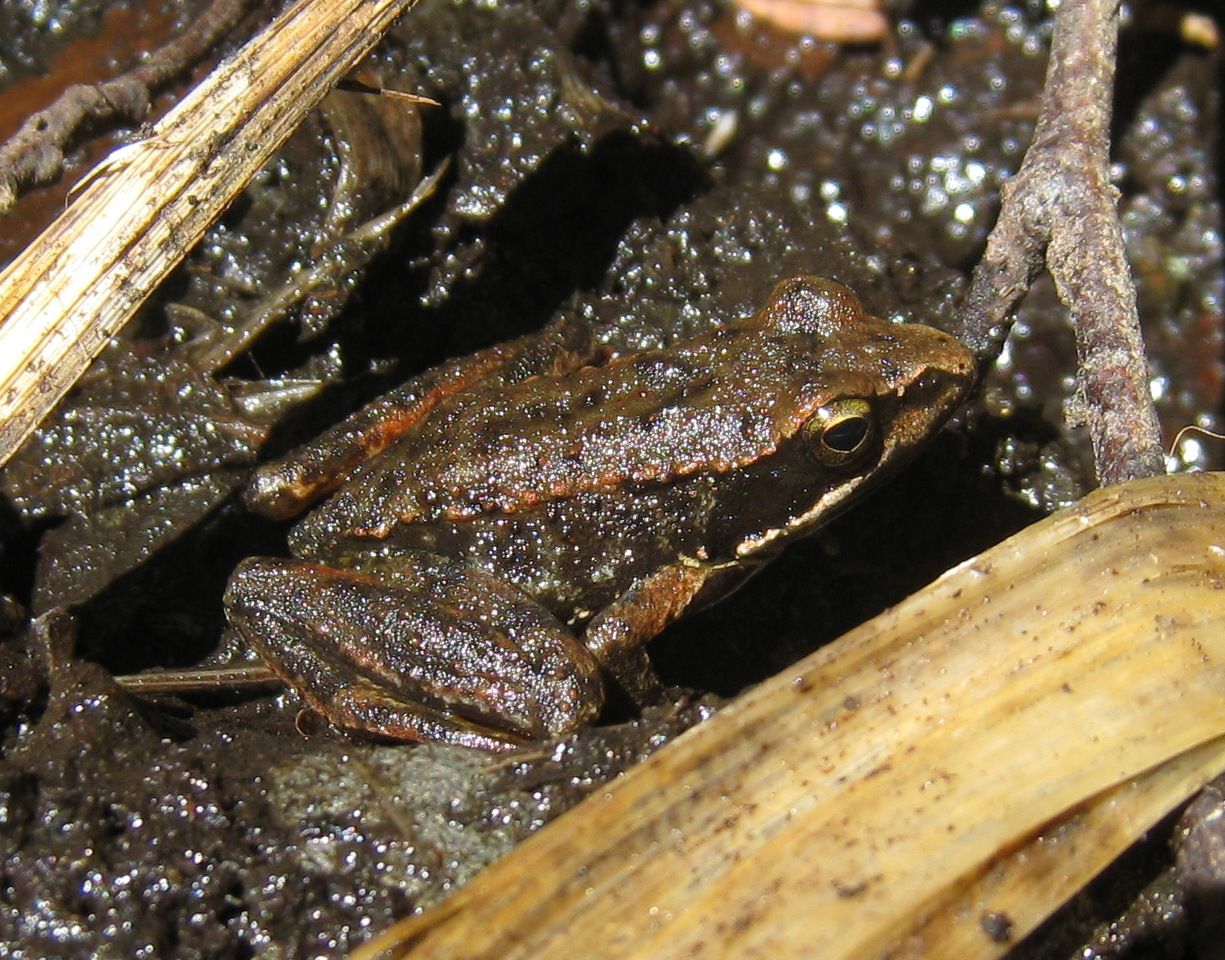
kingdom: Animalia
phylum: Chordata
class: Amphibia
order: Anura
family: Ranidae
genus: Rana
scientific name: Rana iberica
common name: Iberian frog
